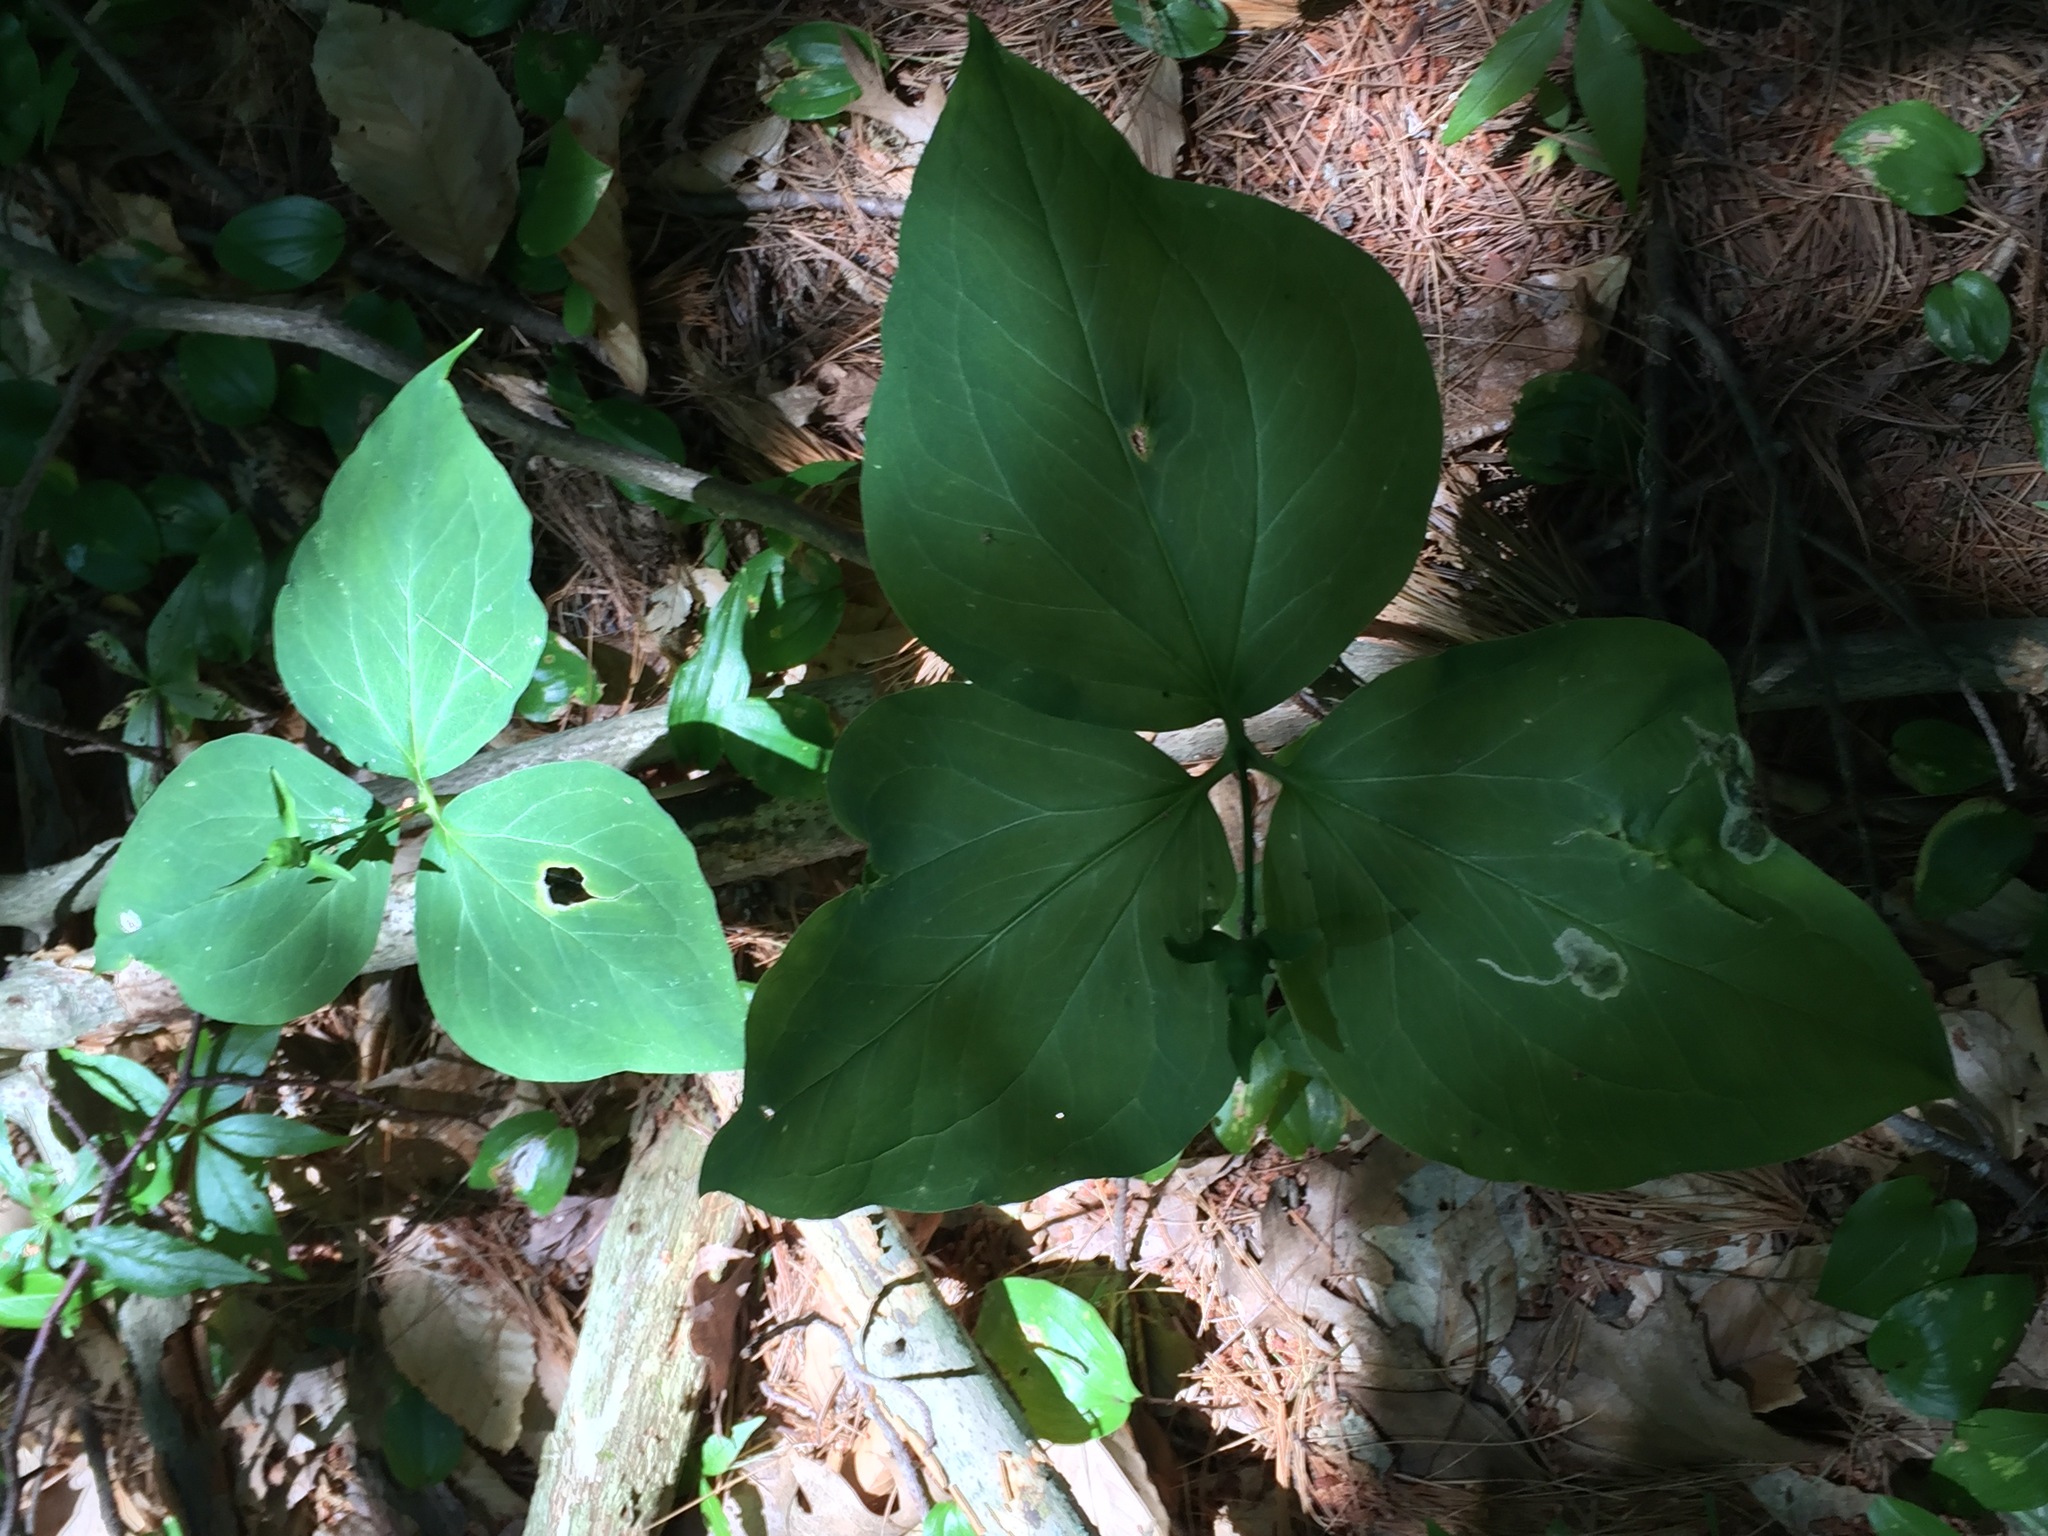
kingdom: Plantae
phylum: Tracheophyta
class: Liliopsida
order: Liliales
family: Melanthiaceae
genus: Trillium
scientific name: Trillium undulatum
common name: Paint trillium
